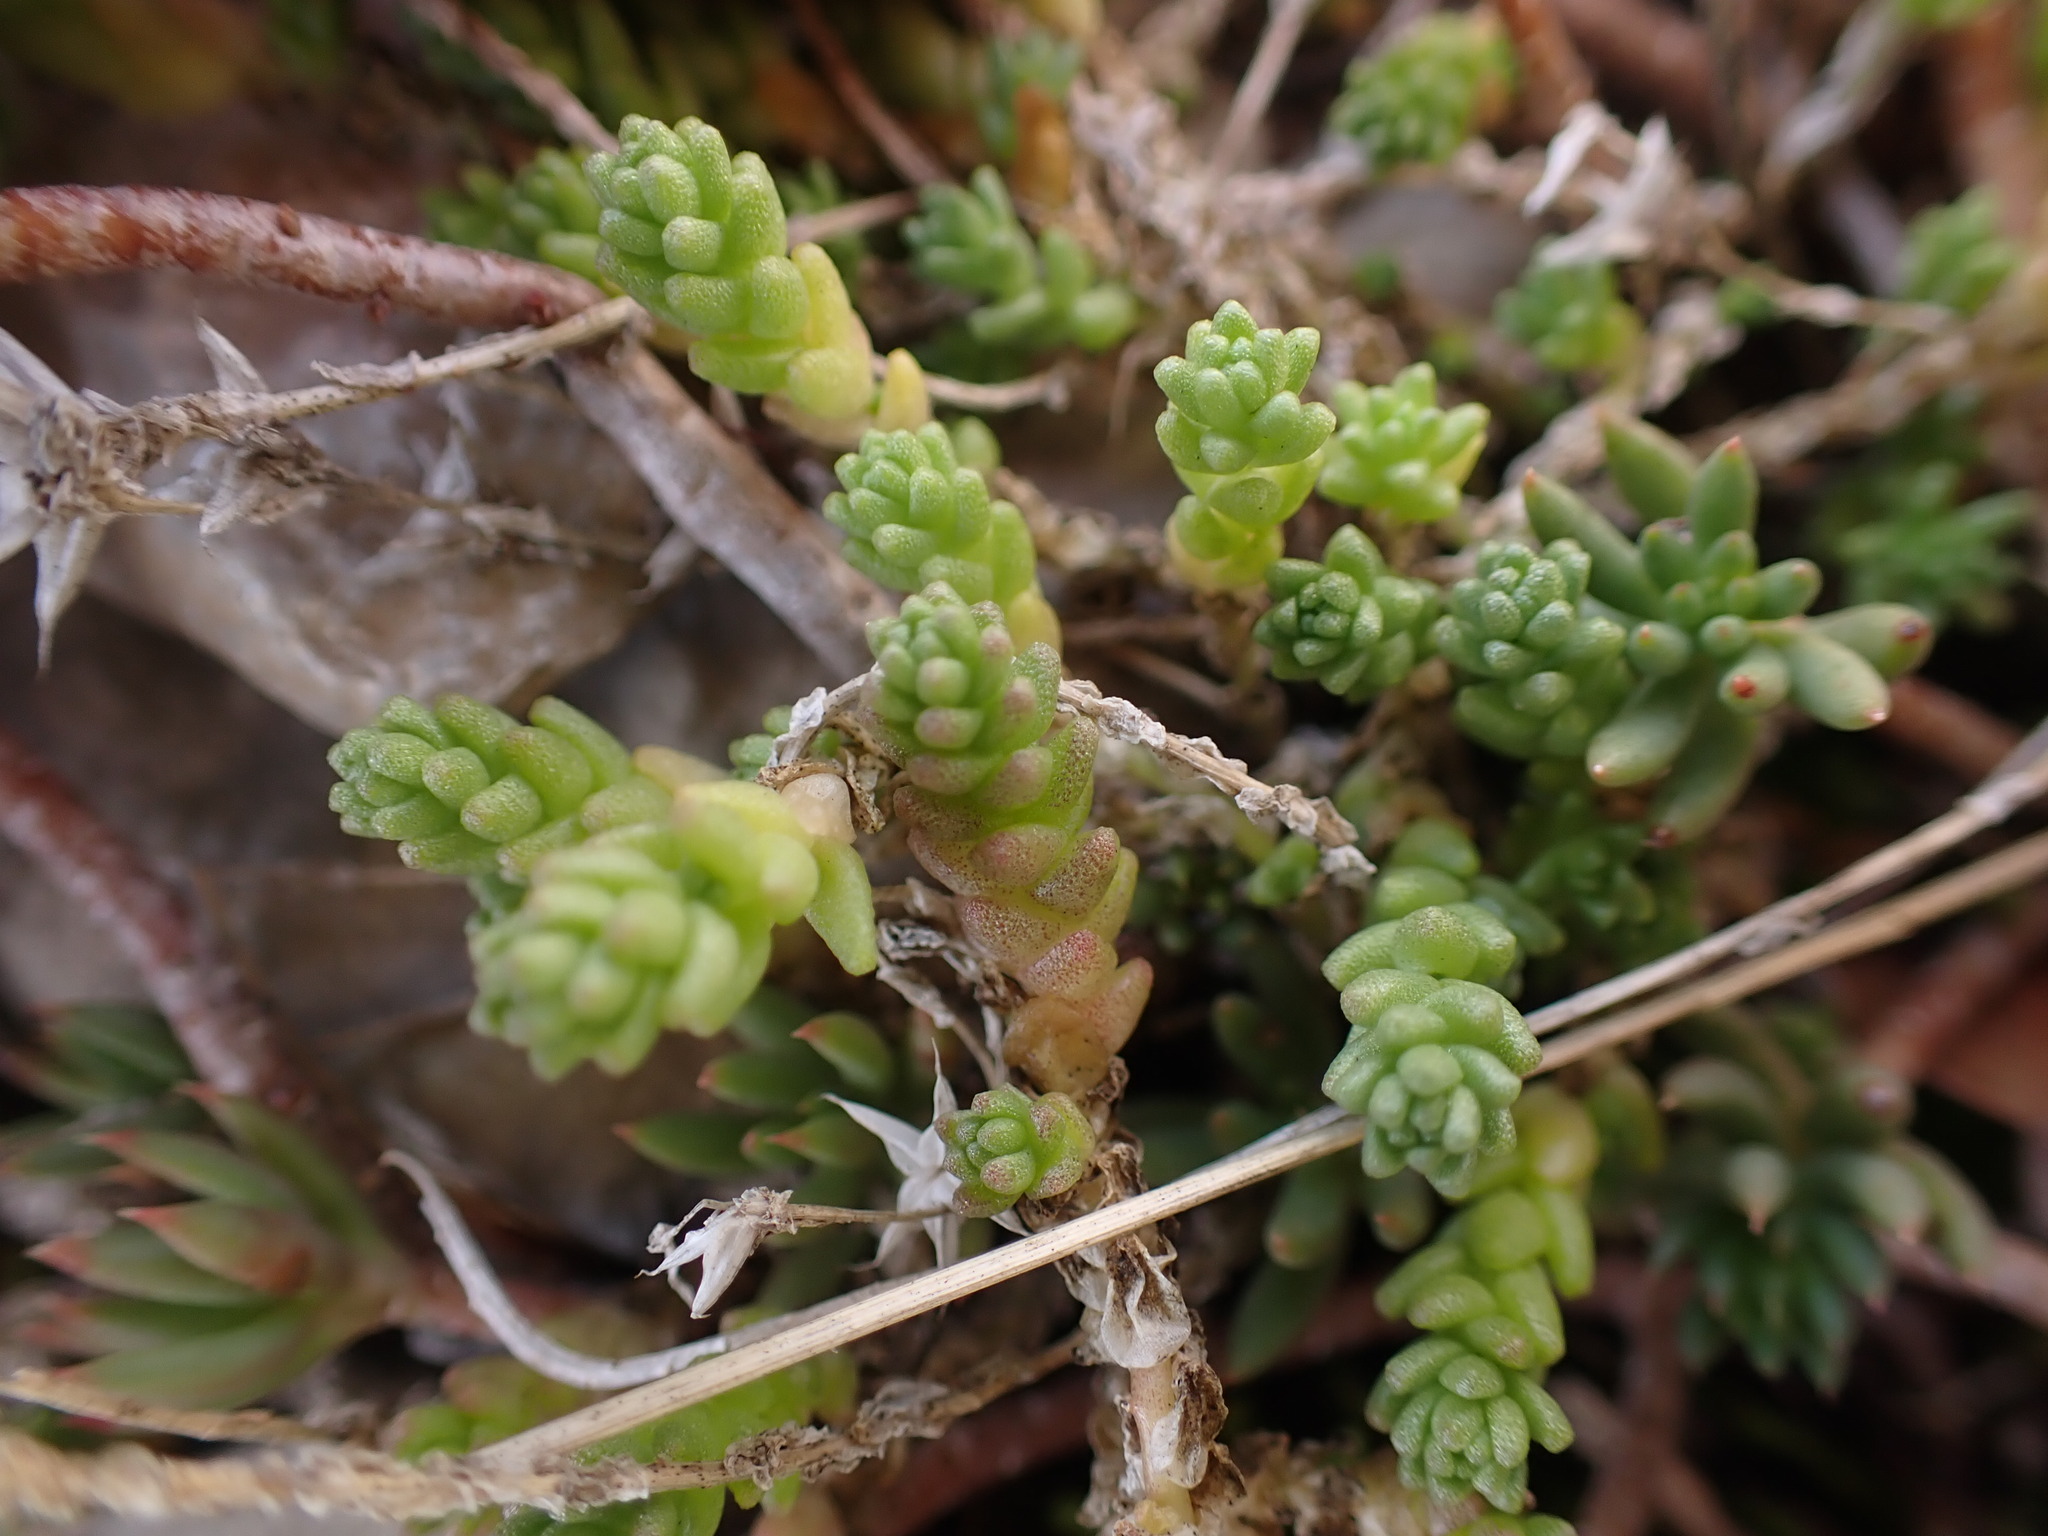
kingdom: Plantae
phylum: Tracheophyta
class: Magnoliopsida
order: Saxifragales
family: Crassulaceae
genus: Sedum
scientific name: Sedum acre
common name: Biting stonecrop
